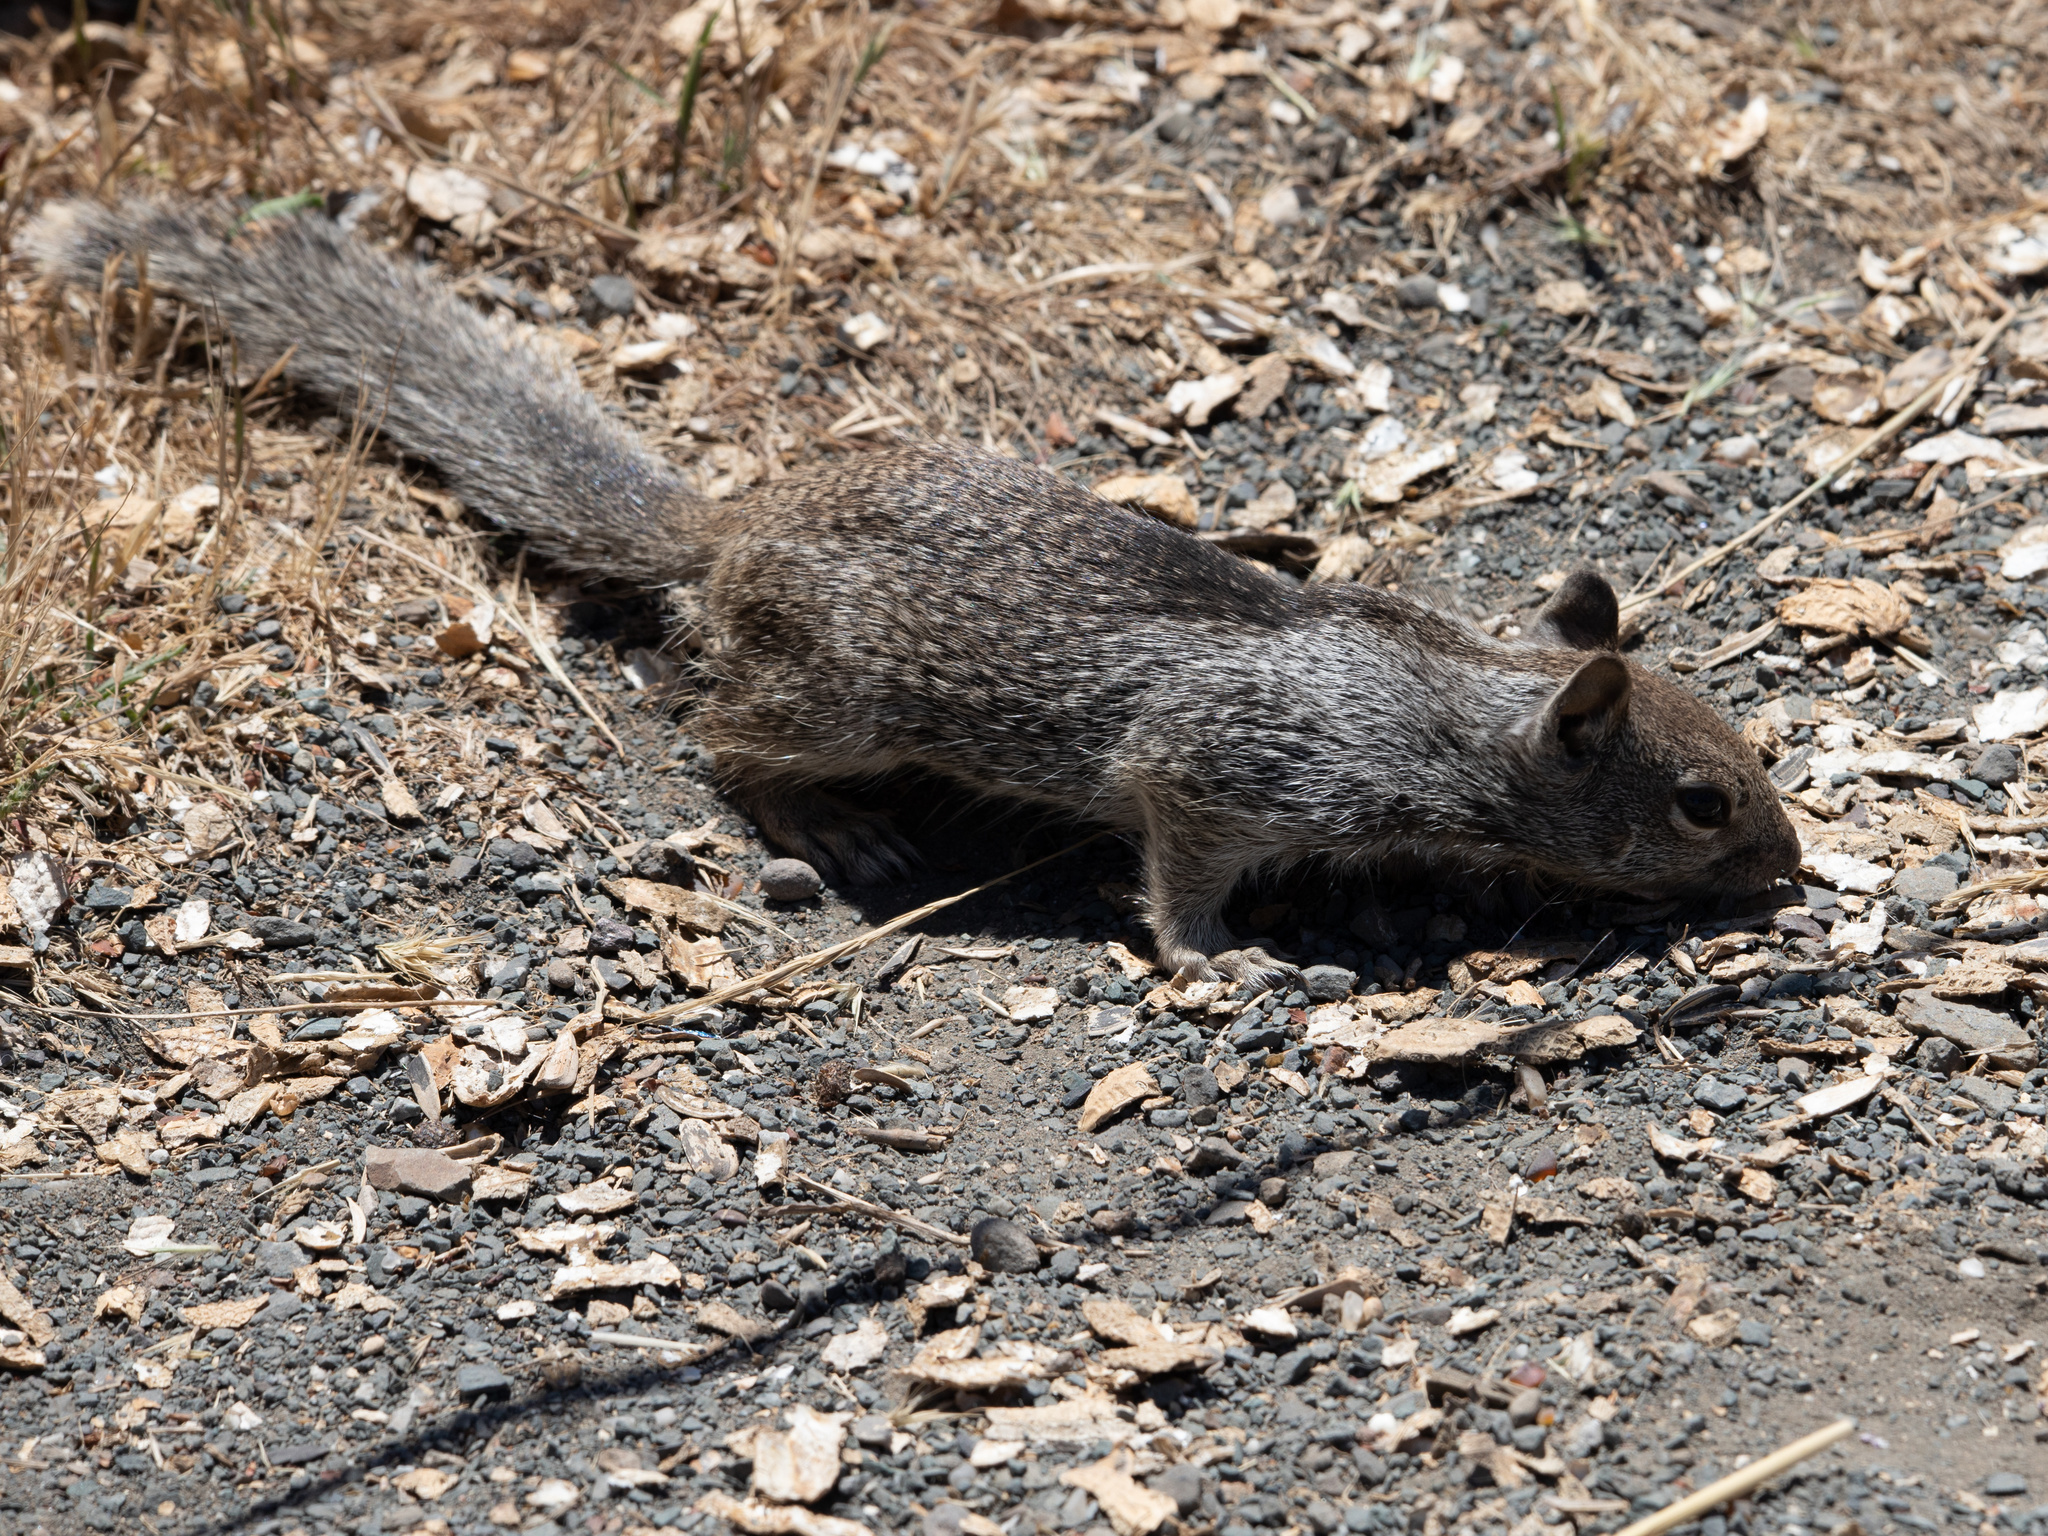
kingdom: Animalia
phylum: Chordata
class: Mammalia
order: Rodentia
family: Sciuridae
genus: Otospermophilus
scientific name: Otospermophilus beecheyi
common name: California ground squirrel
